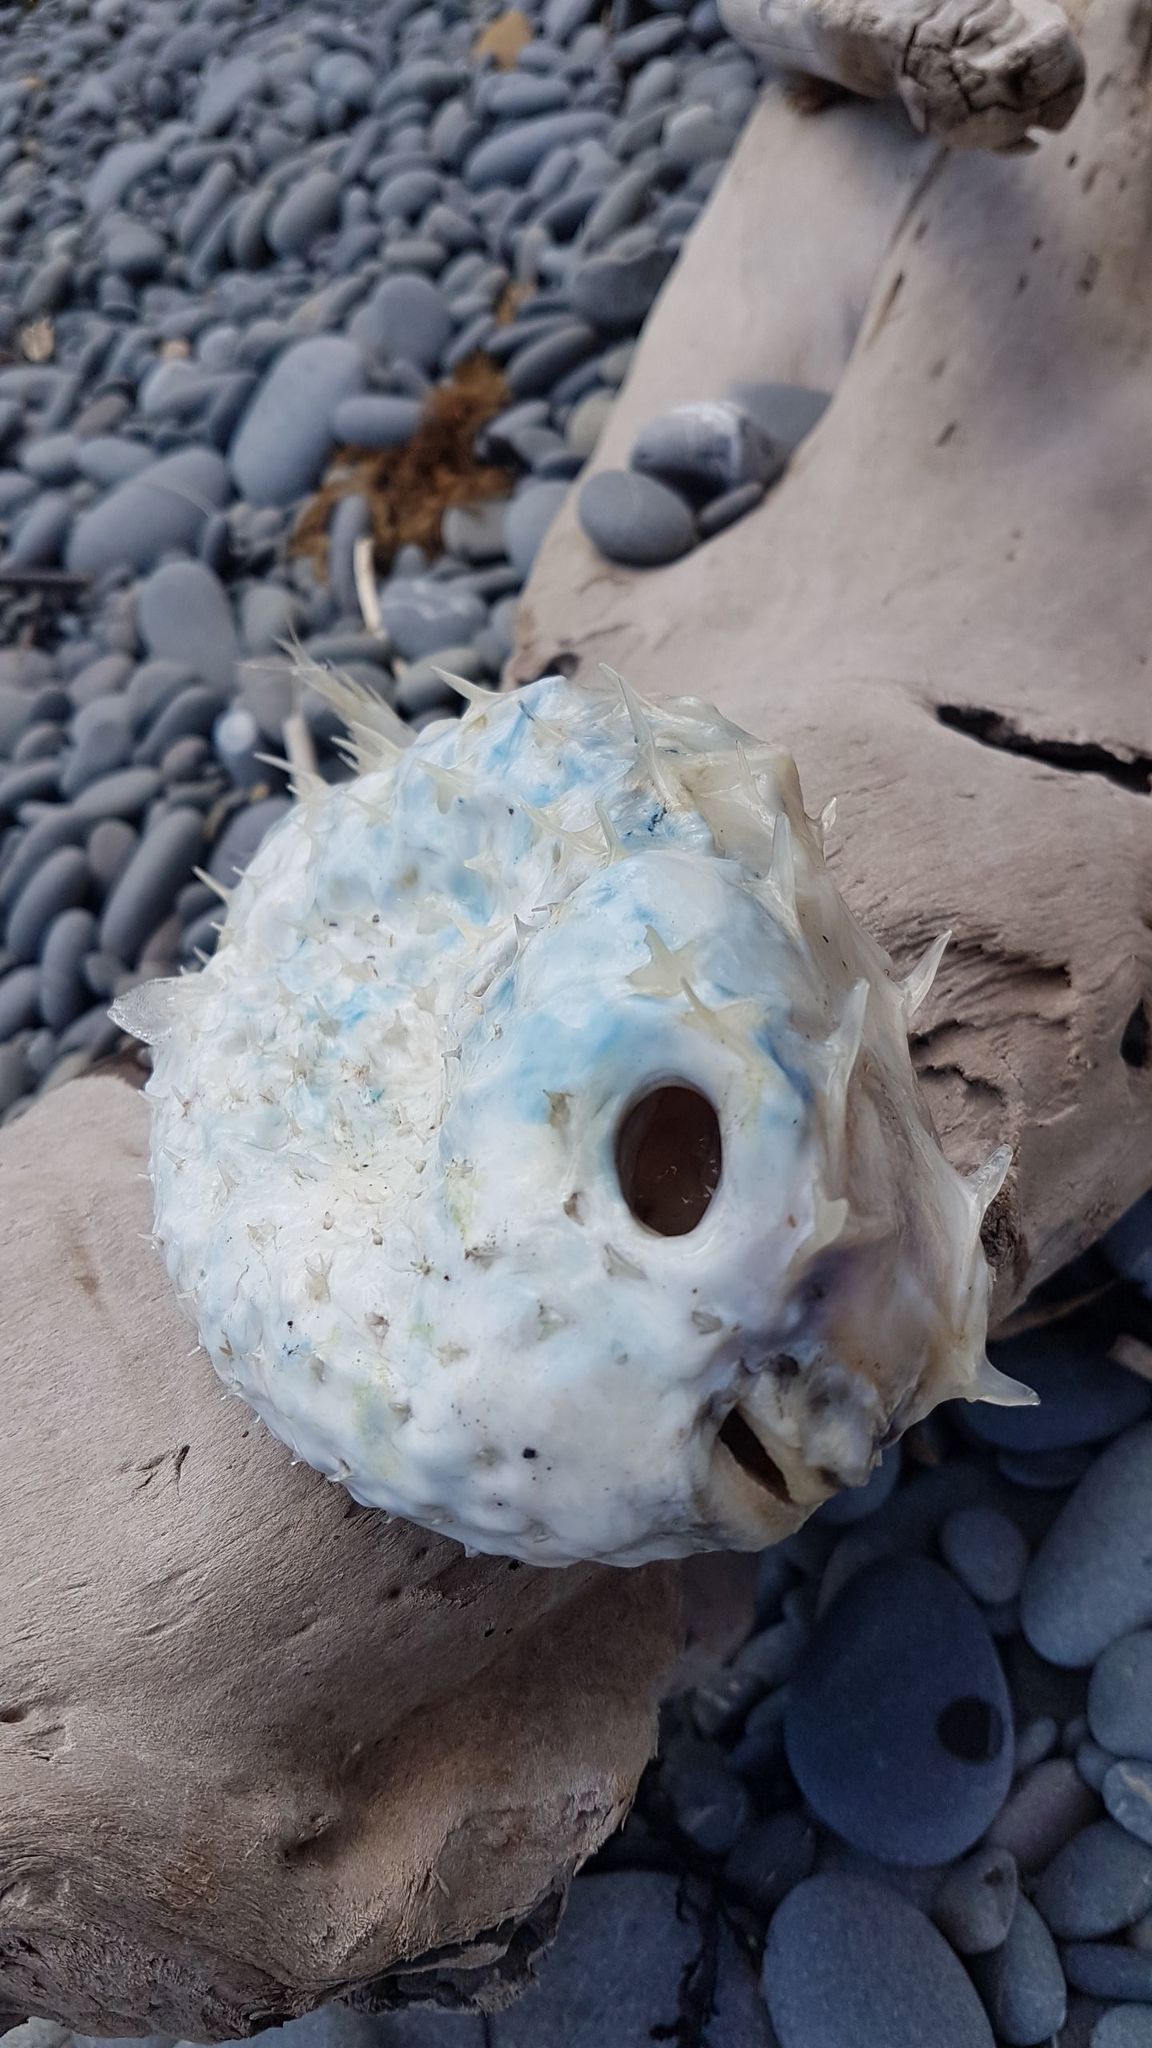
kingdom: Animalia
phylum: Chordata
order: Tetraodontiformes
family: Diodontidae
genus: Allomycterus
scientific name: Allomycterus pilatus
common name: No common name
